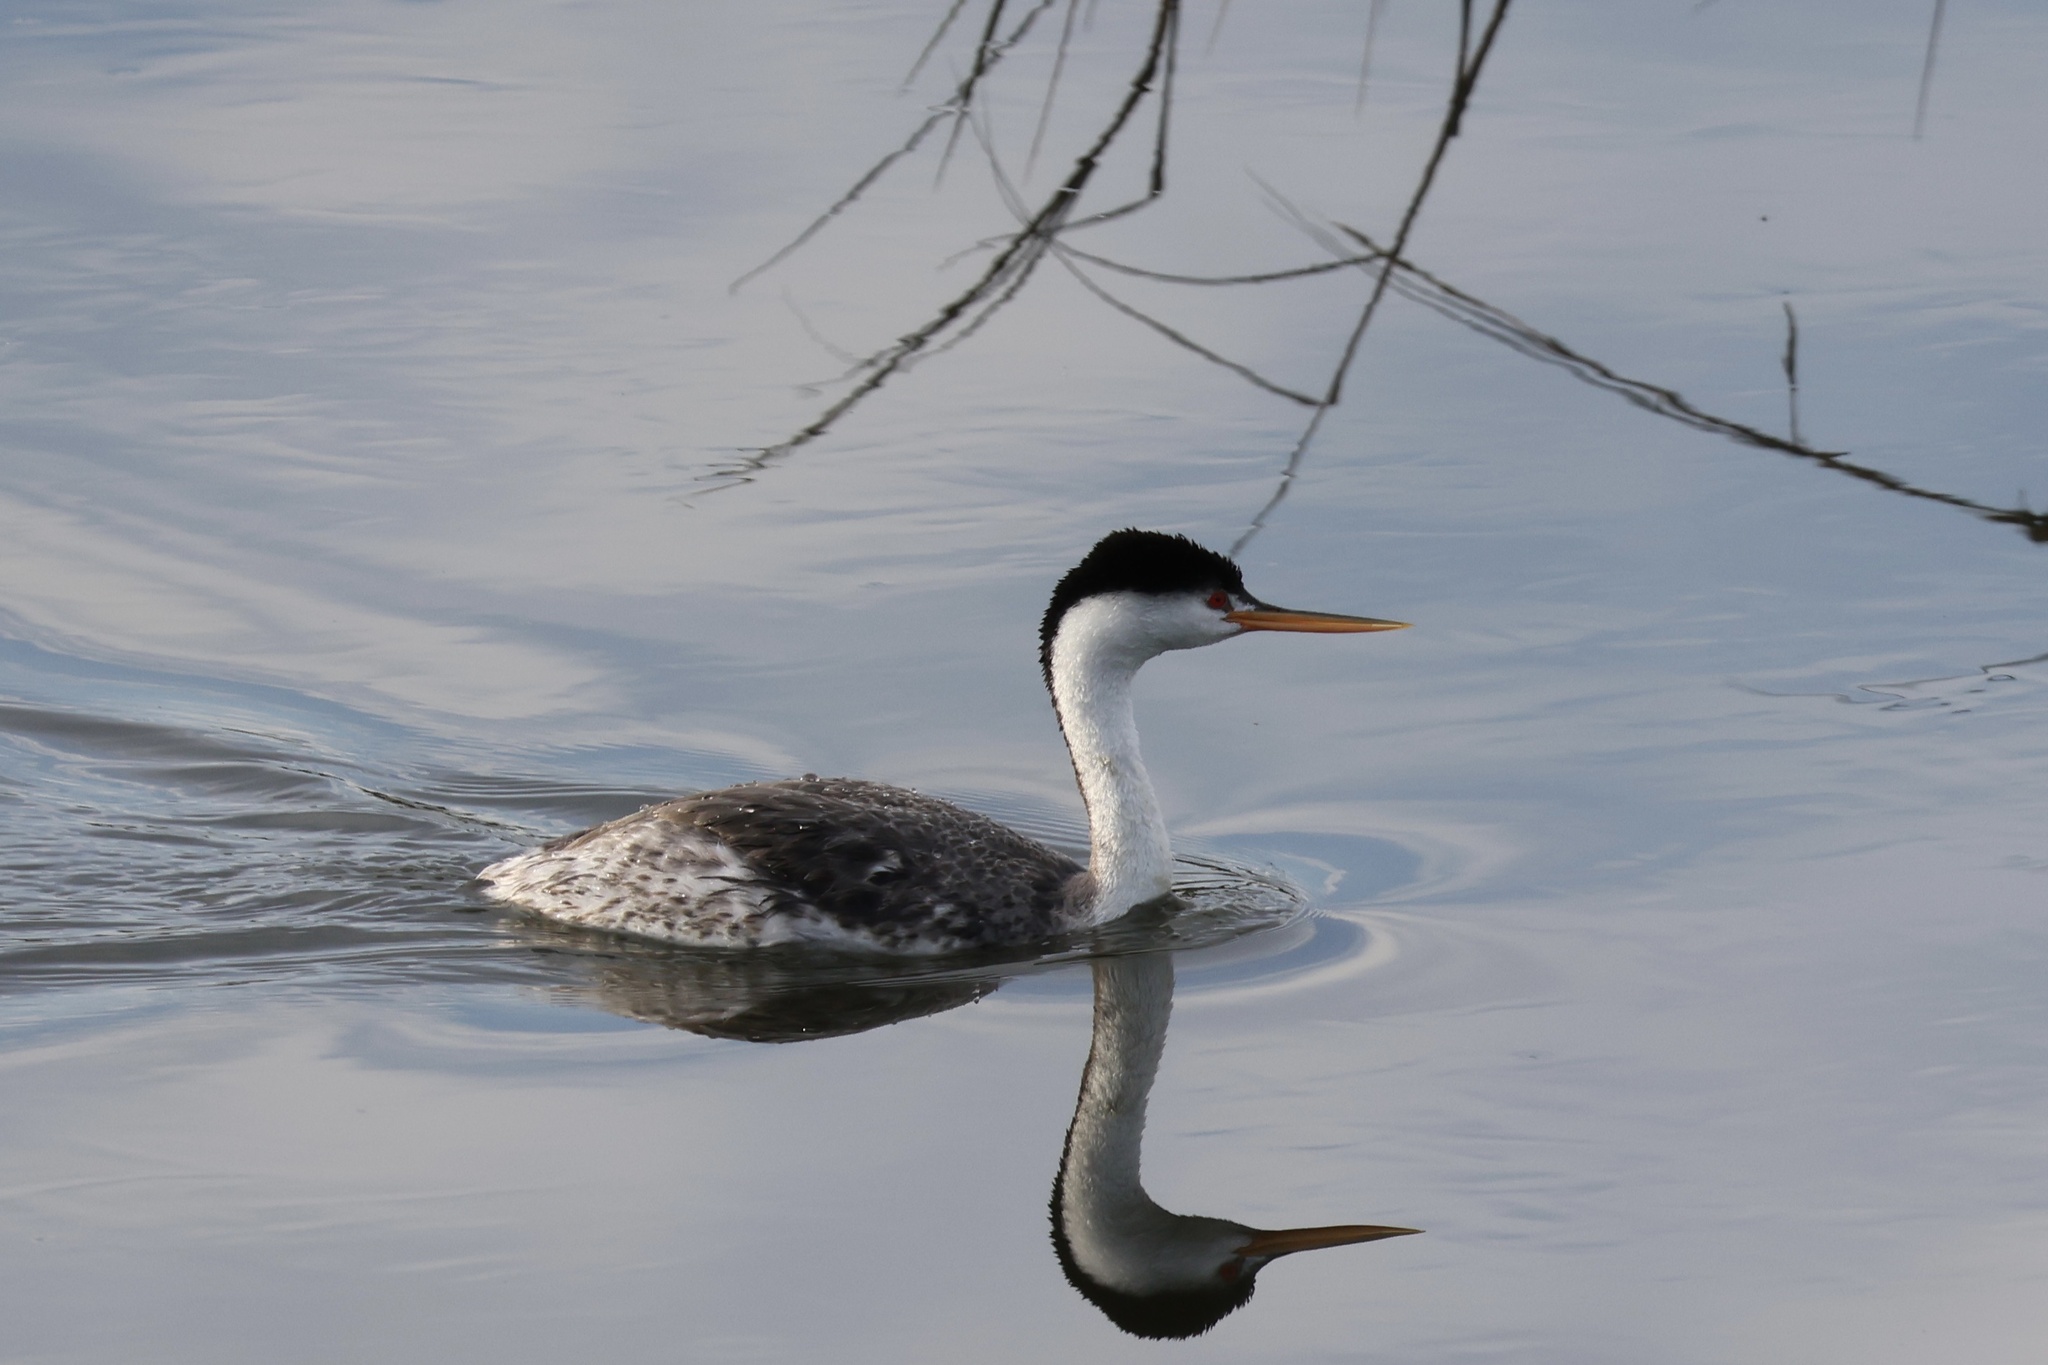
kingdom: Animalia
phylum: Chordata
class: Aves
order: Podicipediformes
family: Podicipedidae
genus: Aechmophorus
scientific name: Aechmophorus clarkii
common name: Clark's grebe
